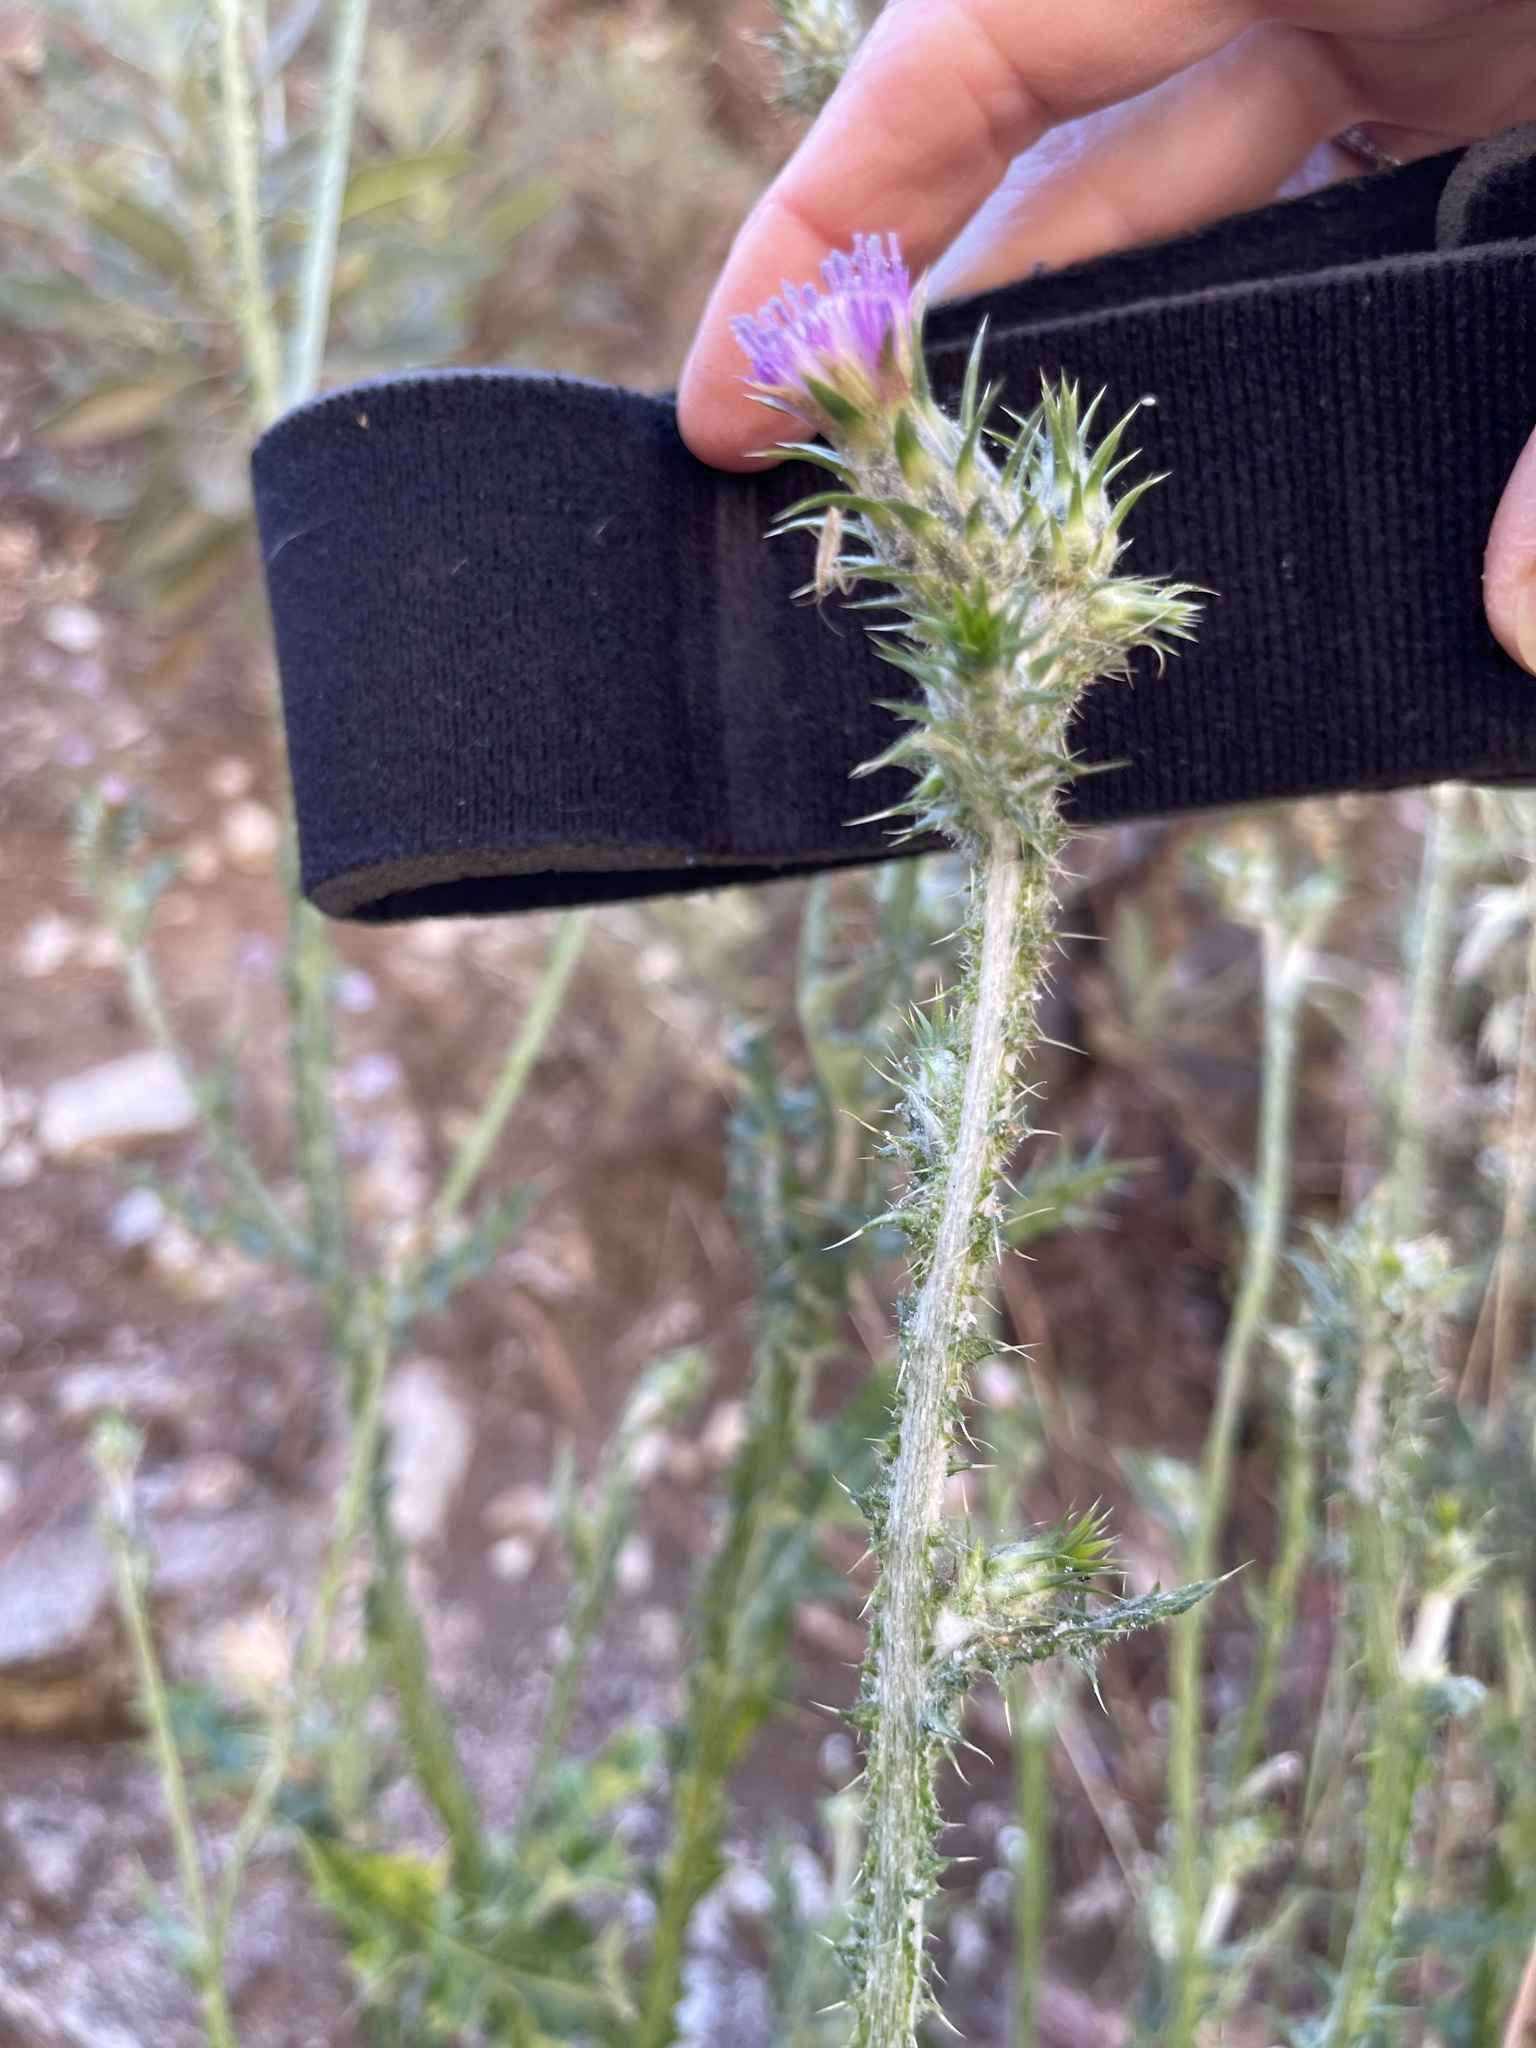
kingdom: Plantae
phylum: Tracheophyta
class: Magnoliopsida
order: Asterales
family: Asteraceae
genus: Carduus
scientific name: Carduus pycnocephalus
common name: Plymouth thistle
